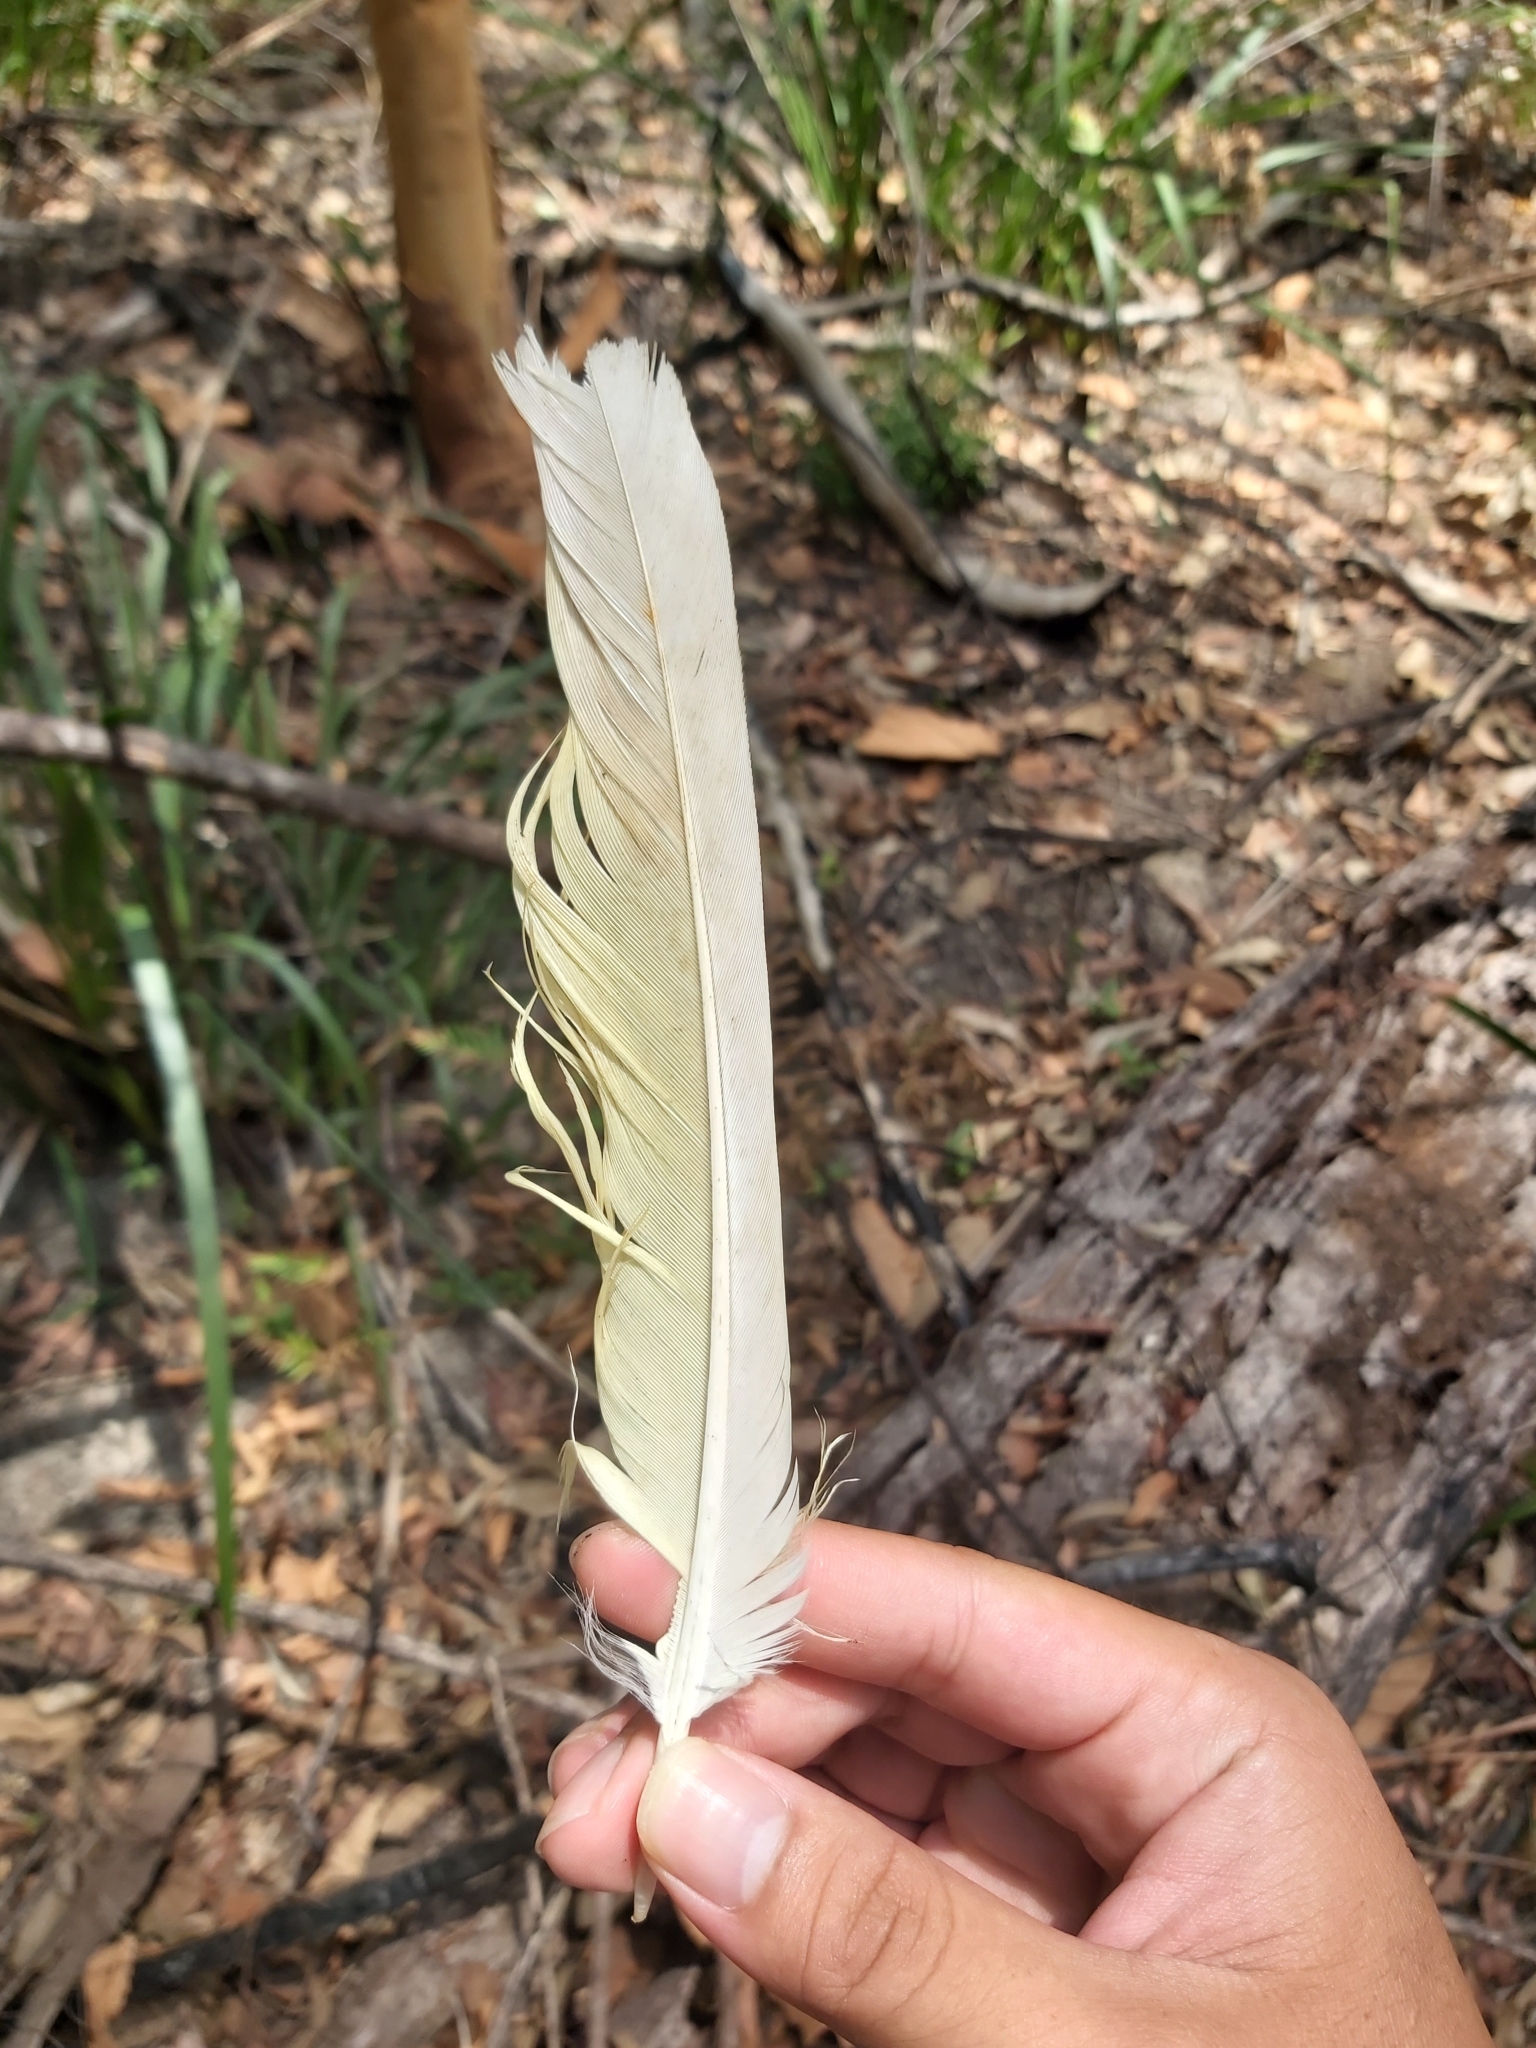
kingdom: Animalia
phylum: Chordata
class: Aves
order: Psittaciformes
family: Psittacidae
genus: Cacatua
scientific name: Cacatua galerita
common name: Sulphur-crested cockatoo
